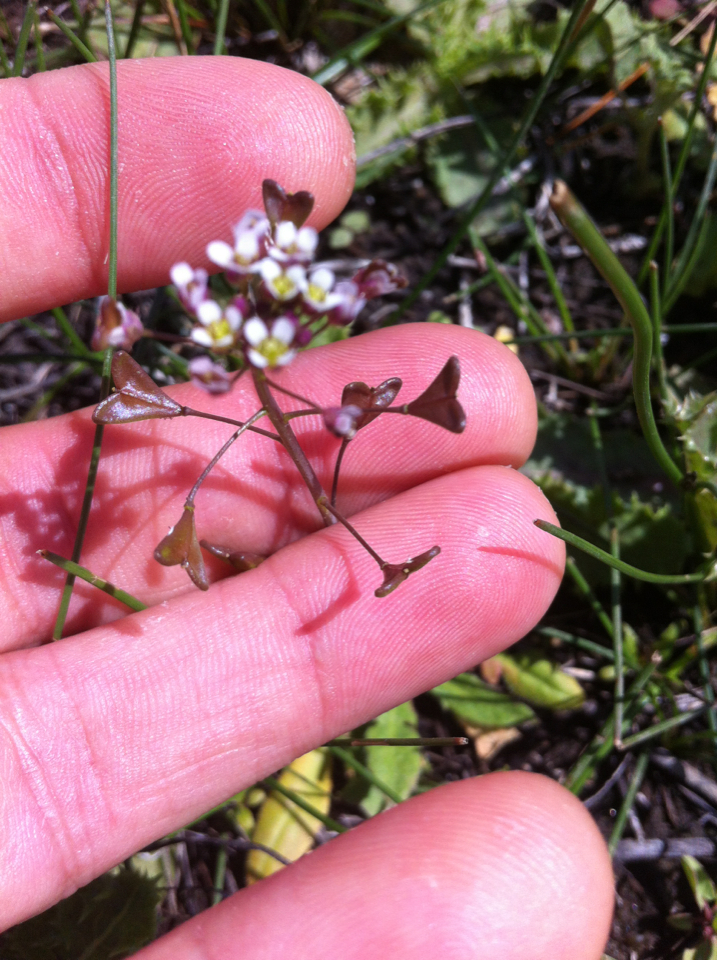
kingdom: Plantae
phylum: Tracheophyta
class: Magnoliopsida
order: Brassicales
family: Brassicaceae
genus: Capsella
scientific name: Capsella bursa-pastoris
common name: Shepherd's purse
